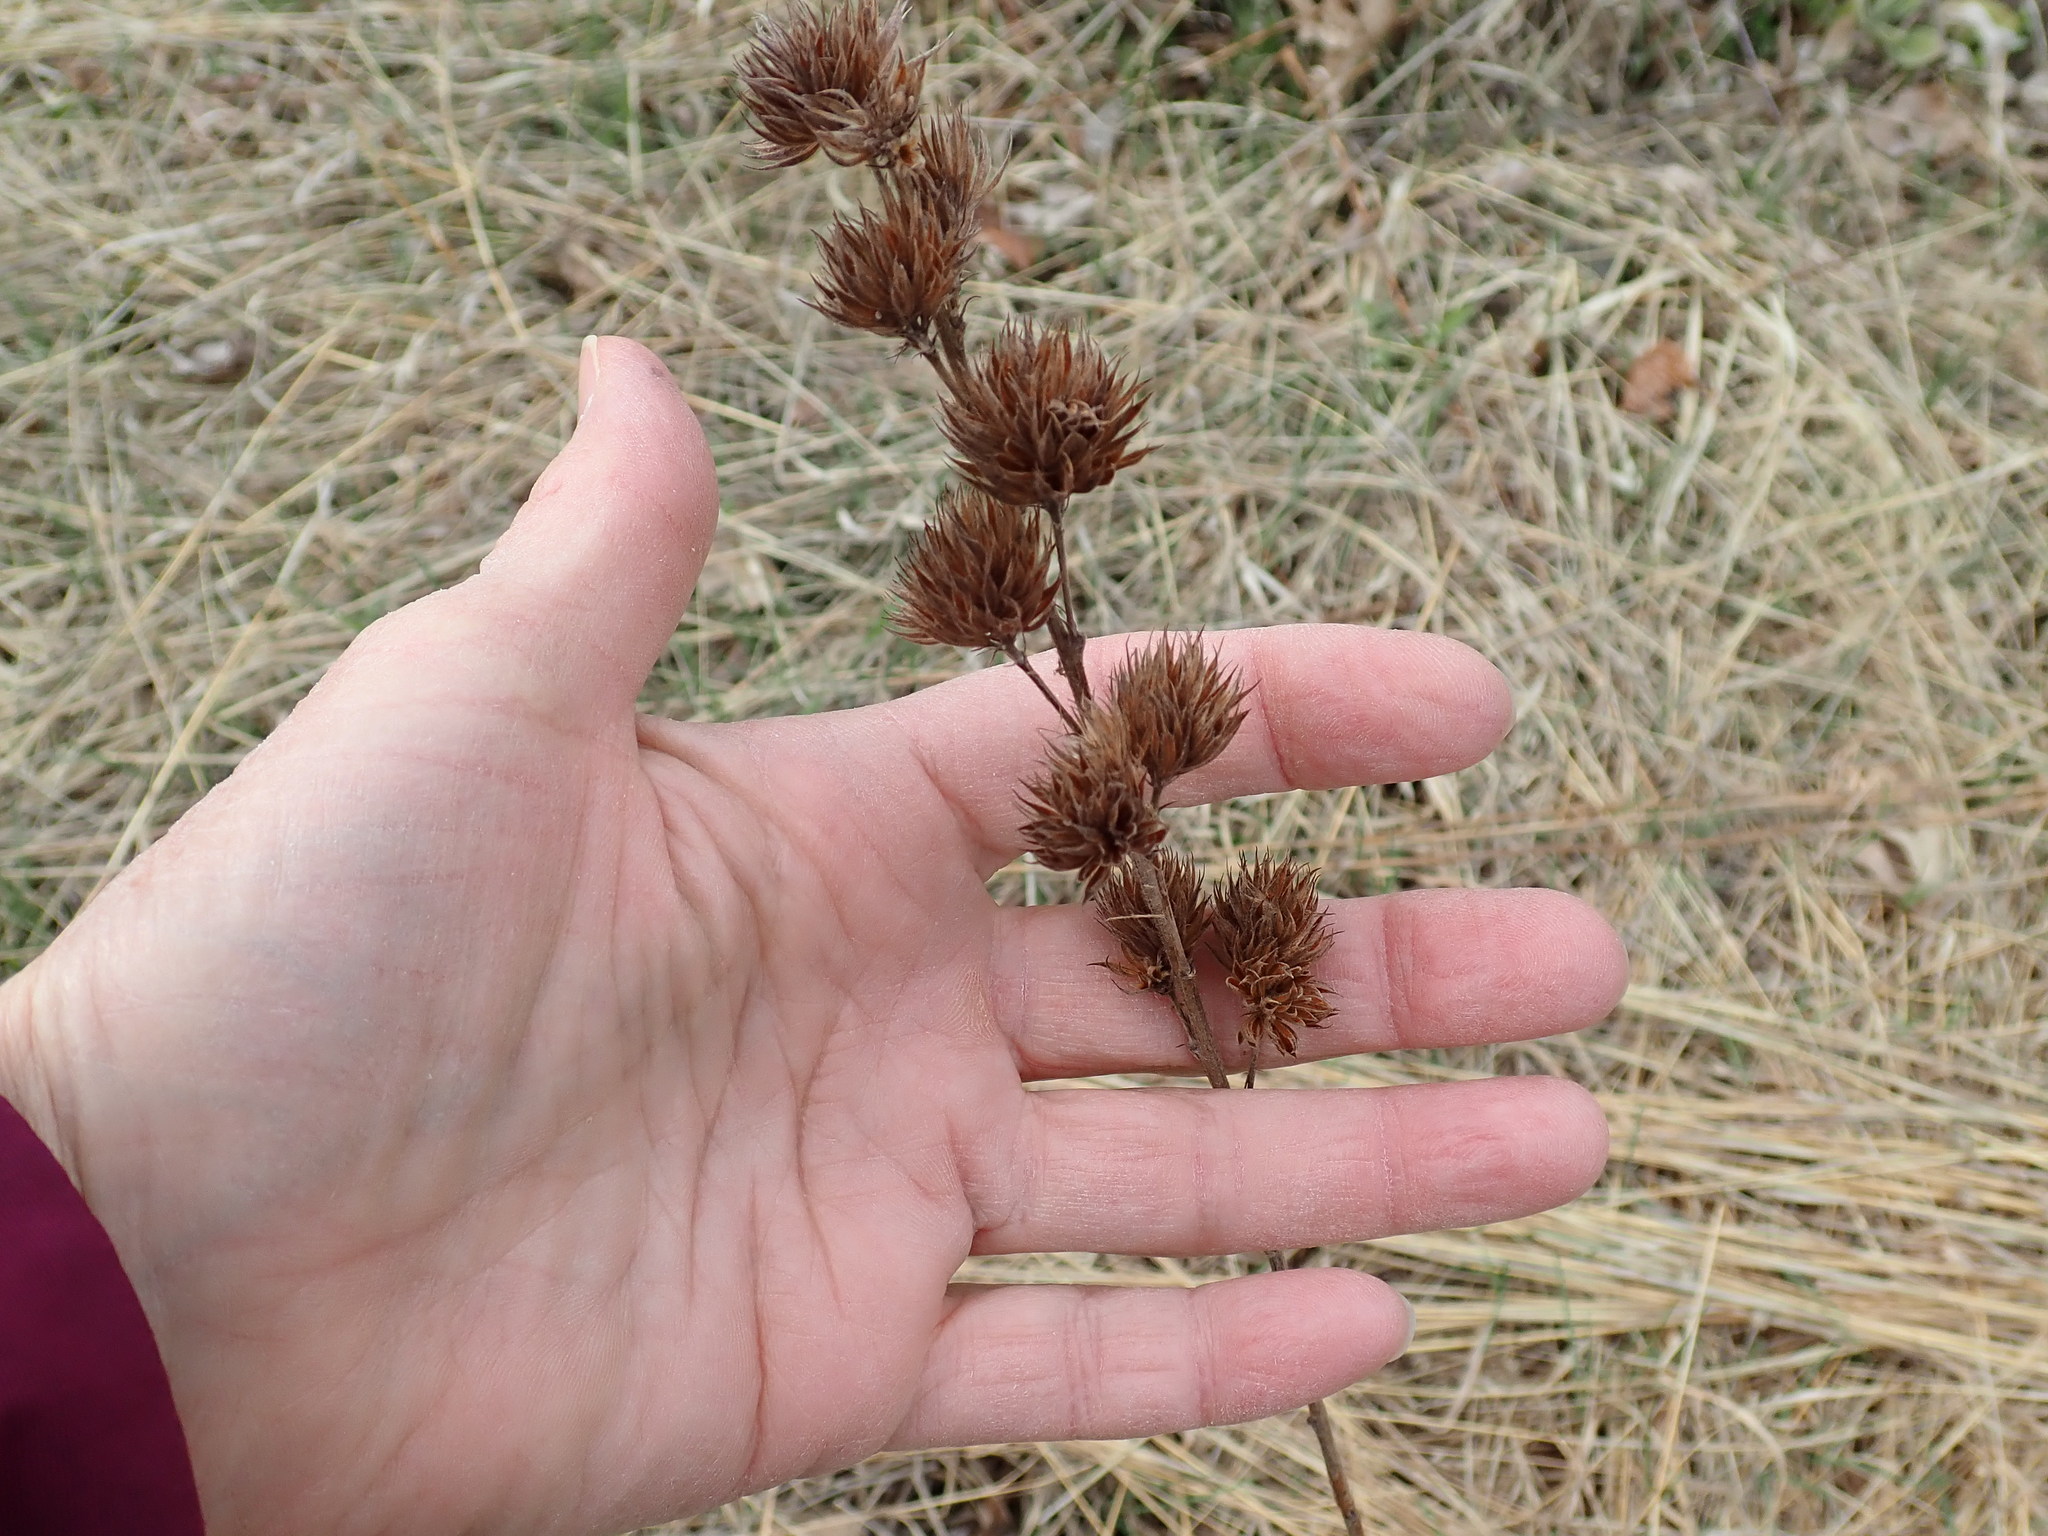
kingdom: Plantae
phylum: Tracheophyta
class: Magnoliopsida
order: Fabales
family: Fabaceae
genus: Lespedeza
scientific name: Lespedeza capitata
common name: Dusty clover
